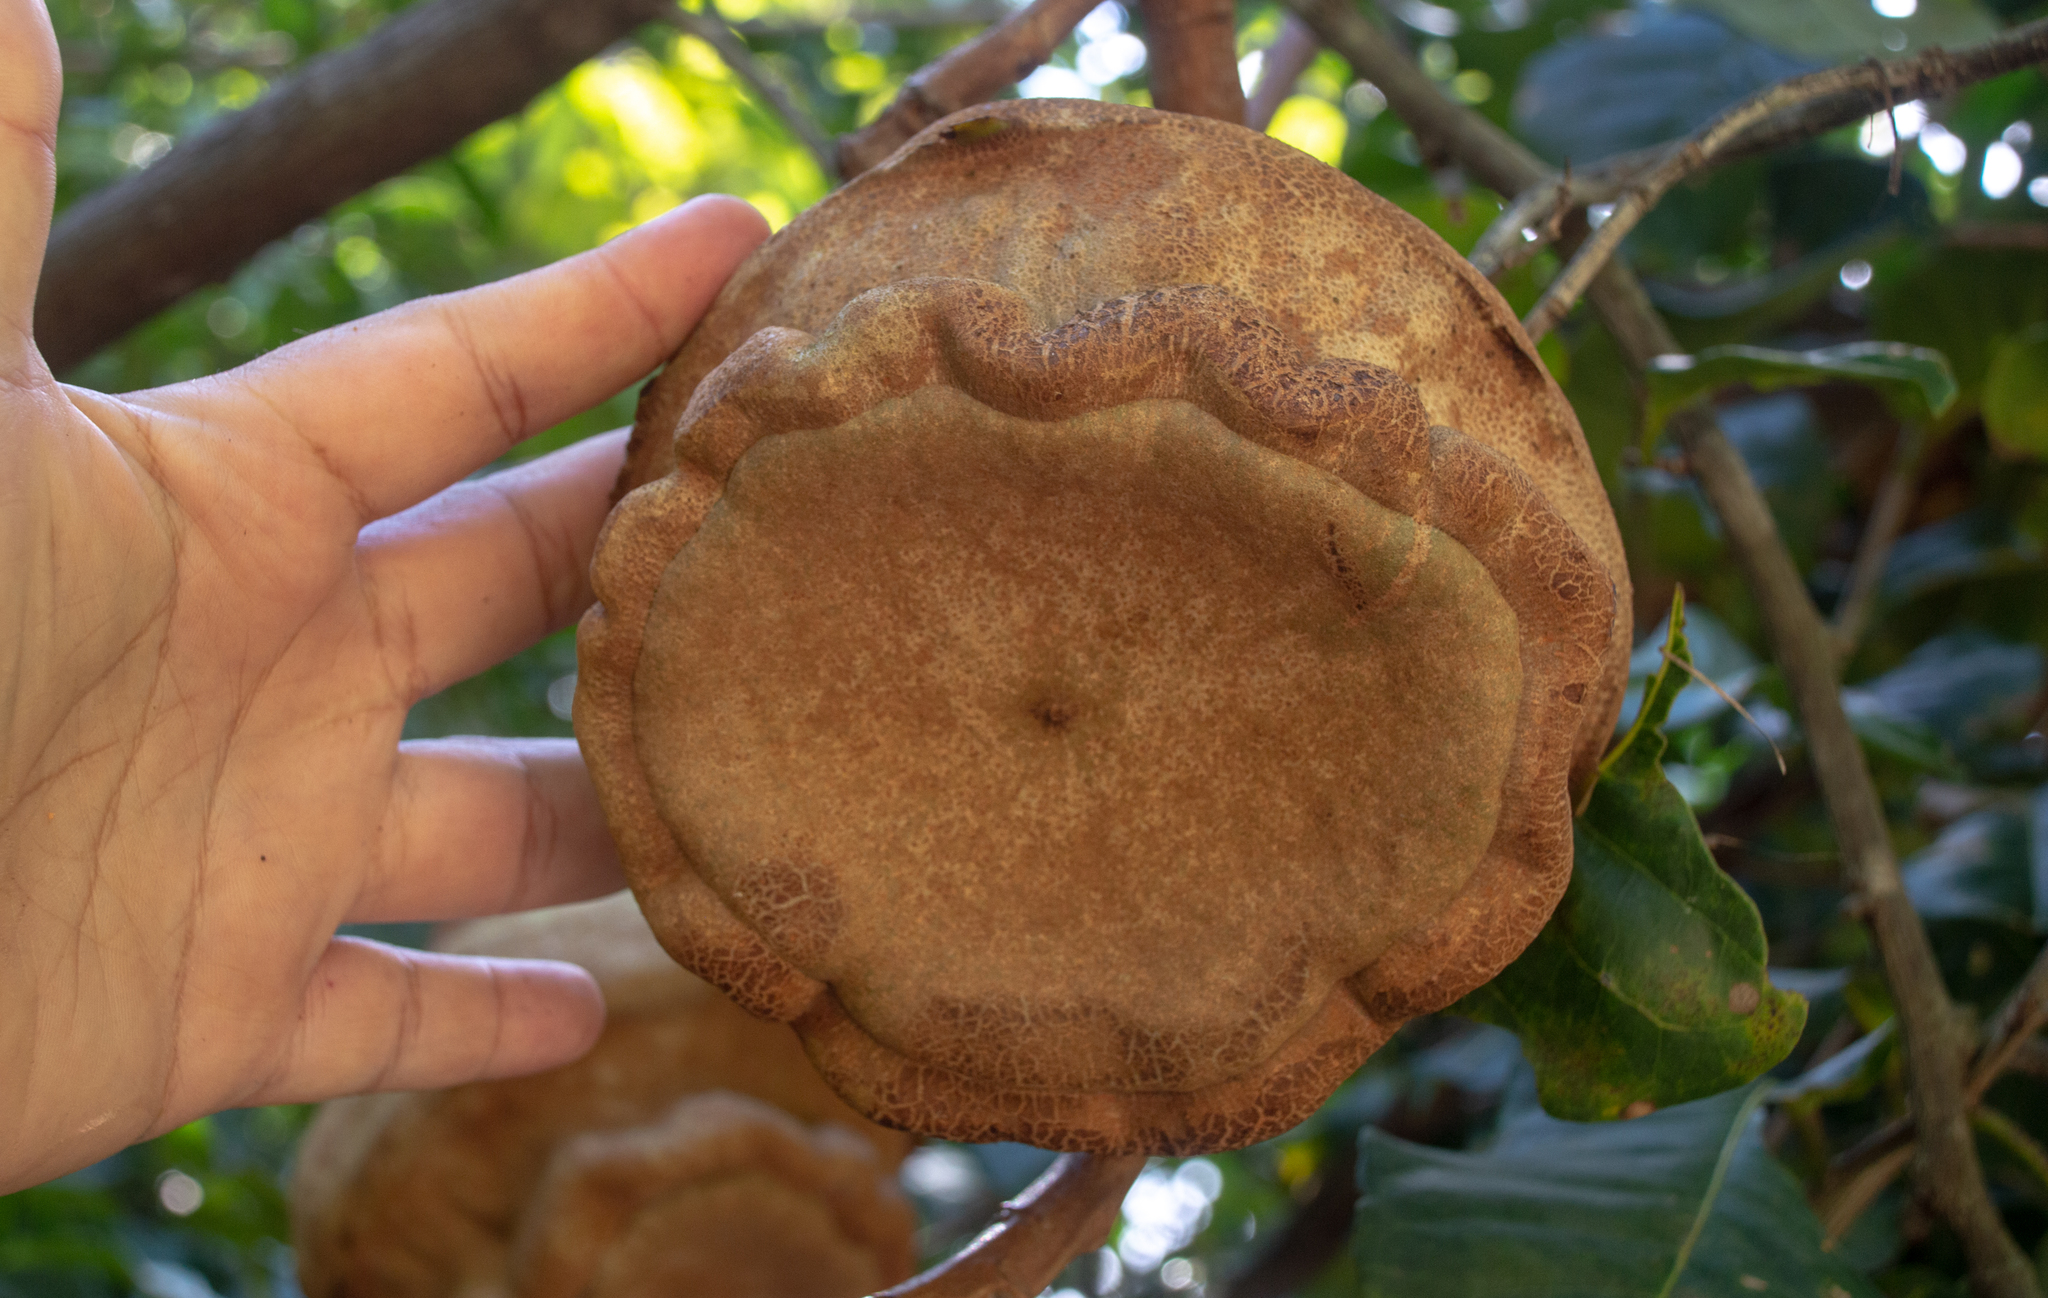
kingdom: Plantae
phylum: Tracheophyta
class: Magnoliopsida
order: Ericales
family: Lecythidaceae
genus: Lecythis
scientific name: Lecythis brancoensis
